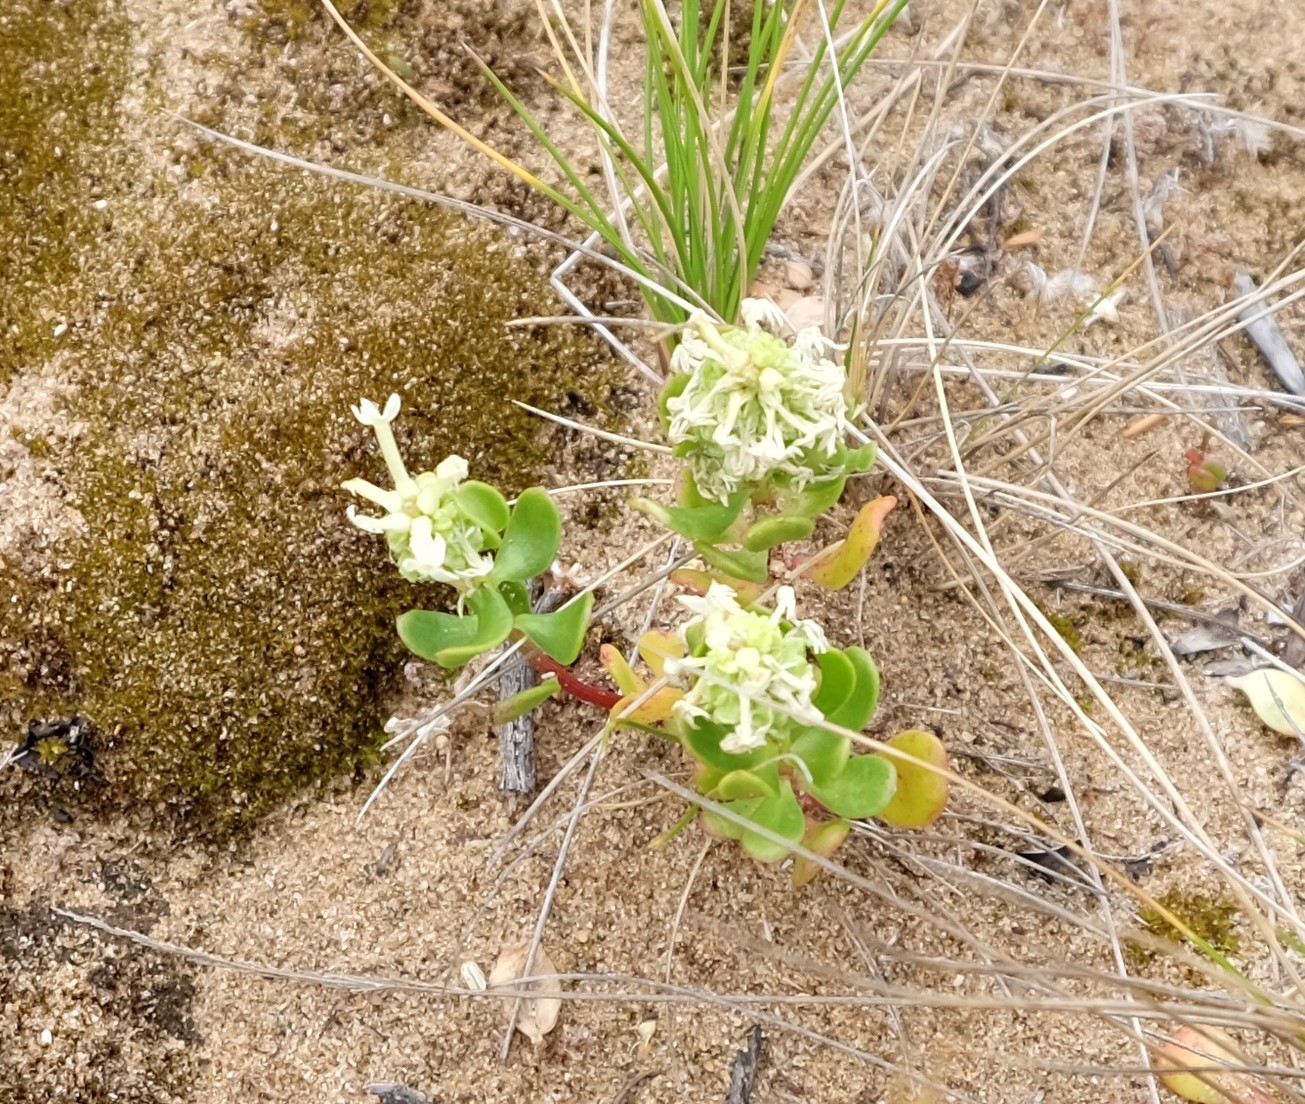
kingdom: Plantae
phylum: Tracheophyta
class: Magnoliopsida
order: Celastrales
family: Celastraceae
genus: Stackhousia
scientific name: Stackhousia spathulata
